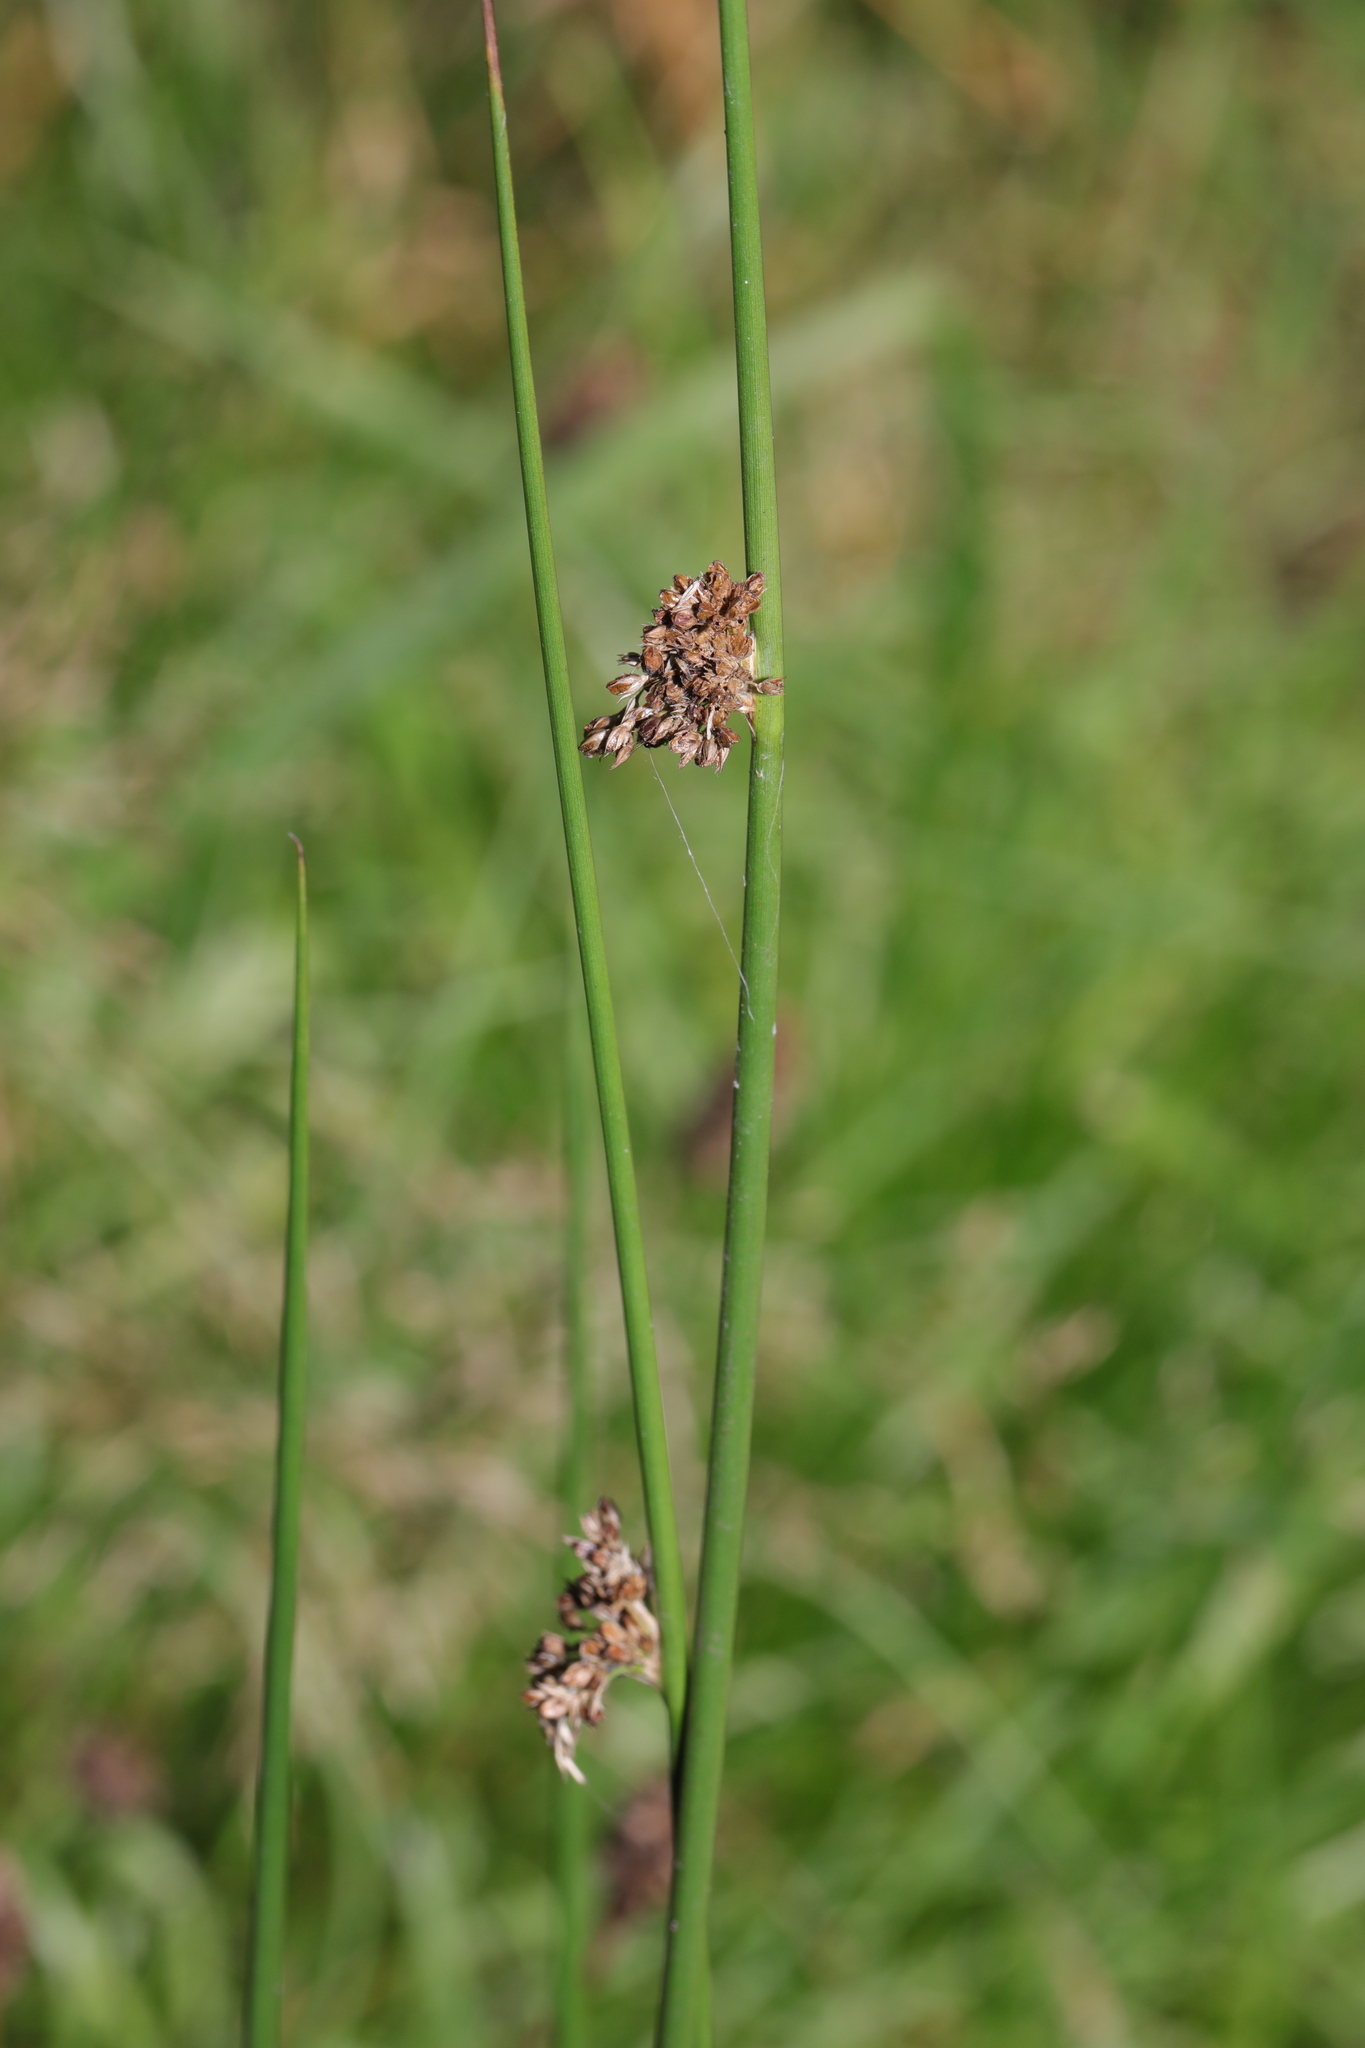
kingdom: Plantae
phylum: Tracheophyta
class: Liliopsida
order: Poales
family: Juncaceae
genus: Juncus
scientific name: Juncus effusus
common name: Soft rush
